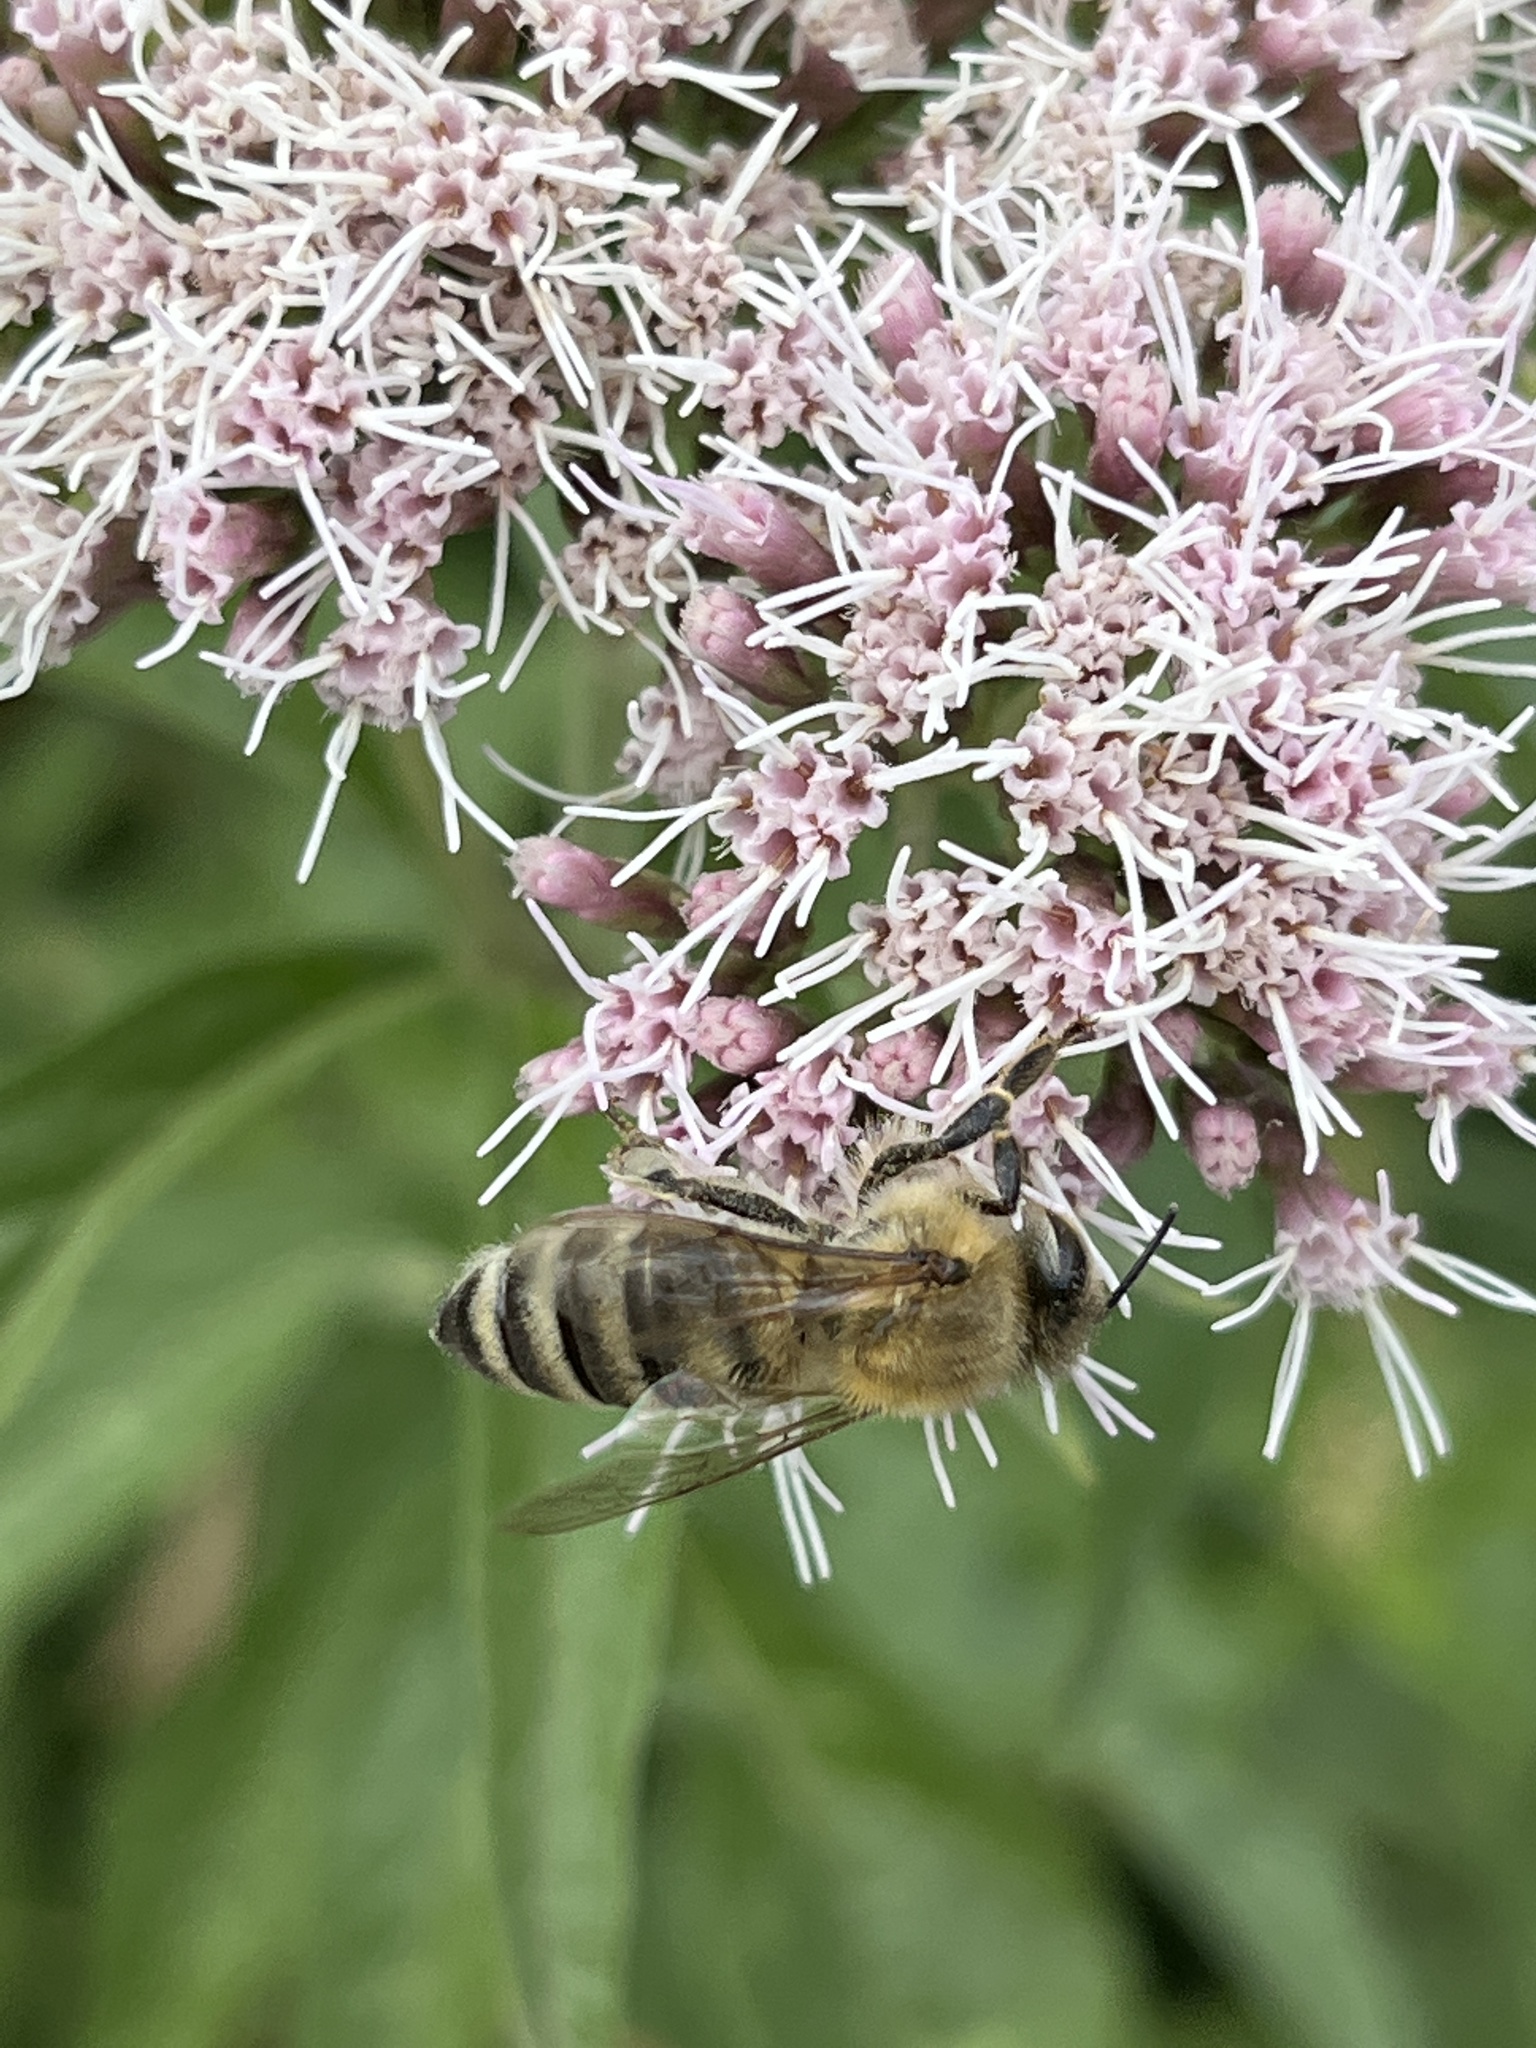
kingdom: Animalia
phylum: Arthropoda
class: Insecta
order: Hymenoptera
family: Apidae
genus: Apis
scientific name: Apis mellifera
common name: Honey bee
